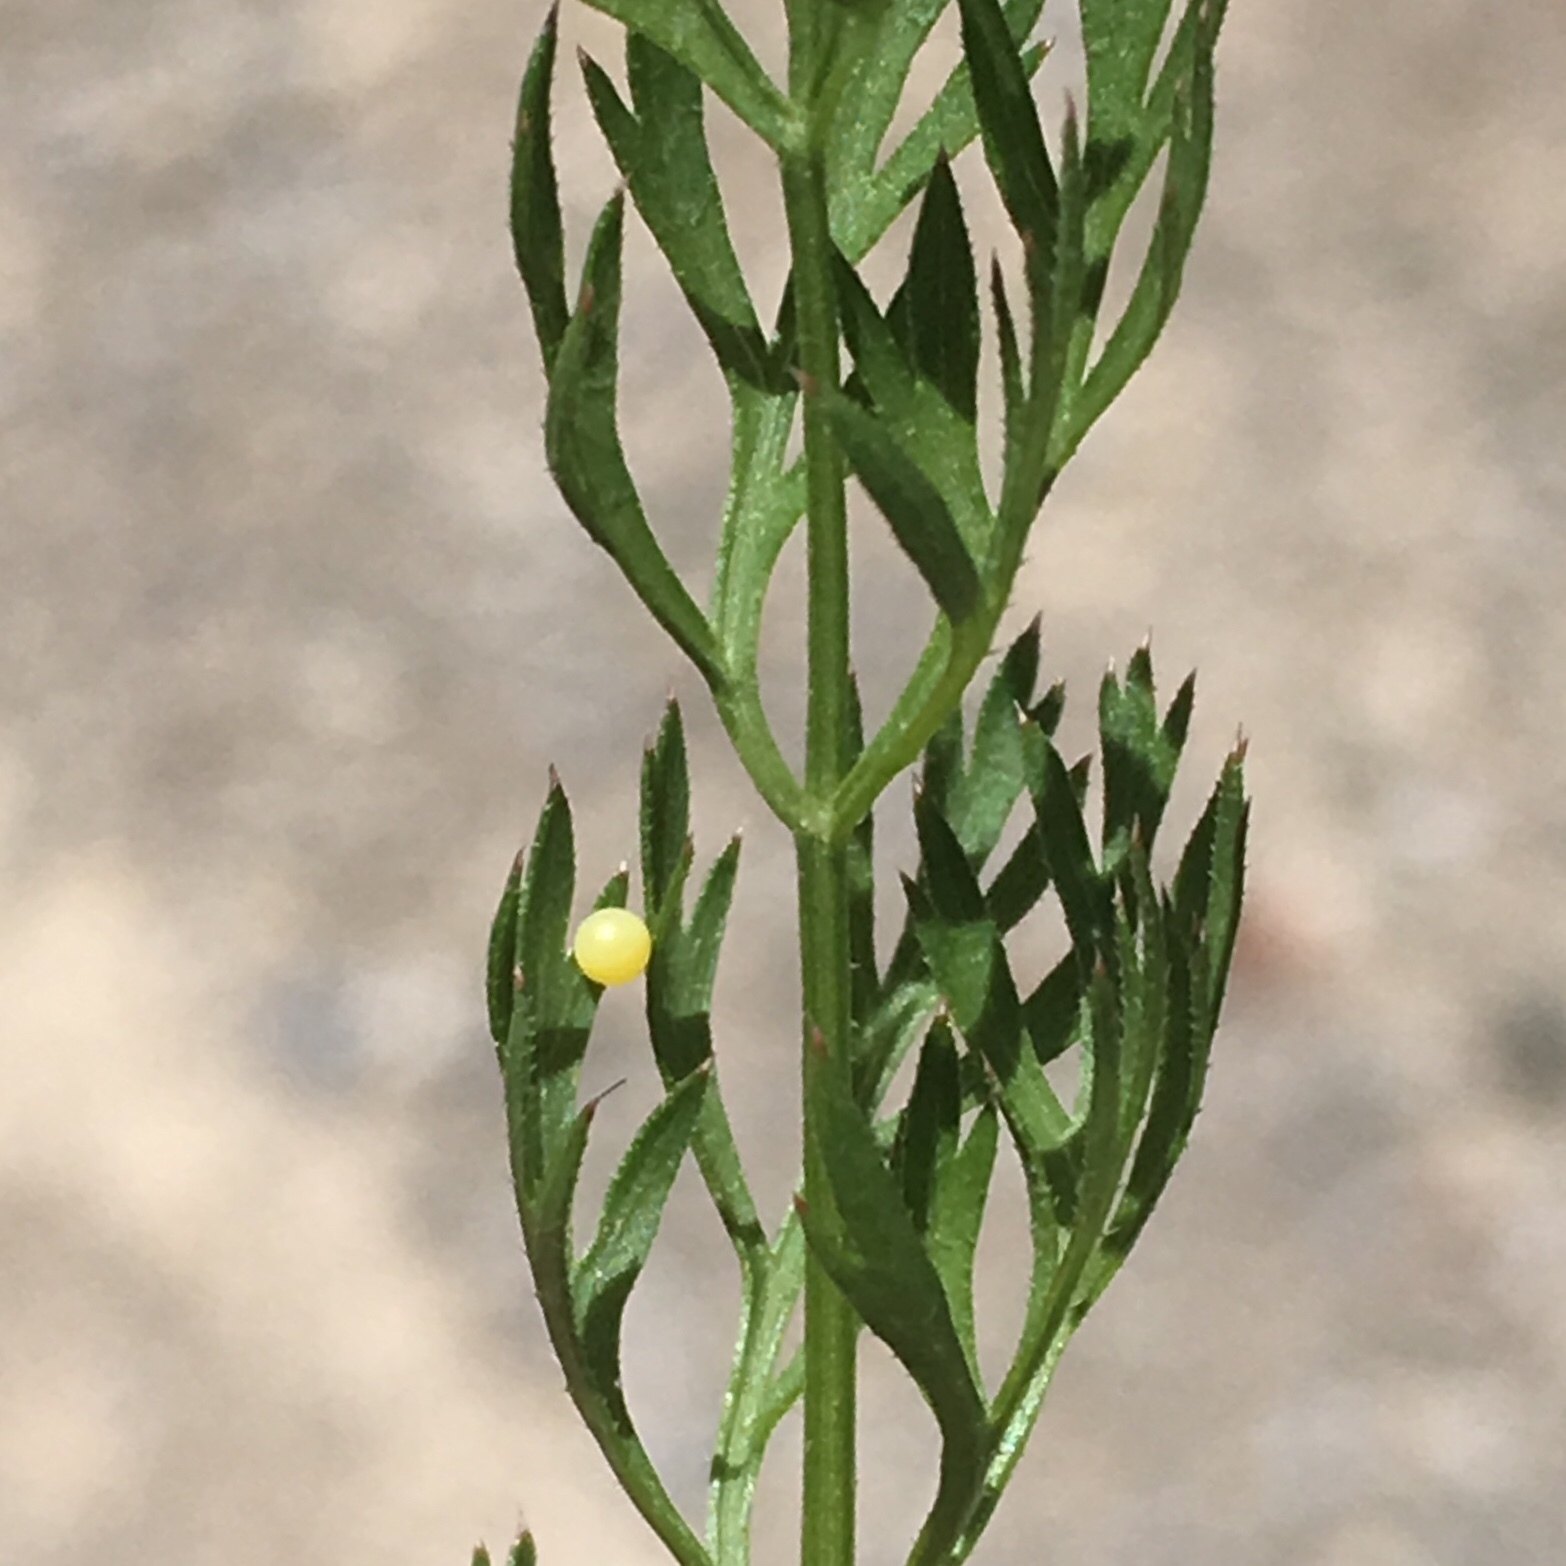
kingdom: Animalia
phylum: Arthropoda
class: Insecta
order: Lepidoptera
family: Papilionidae
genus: Papilio
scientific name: Papilio polyxenes
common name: Black swallowtail
